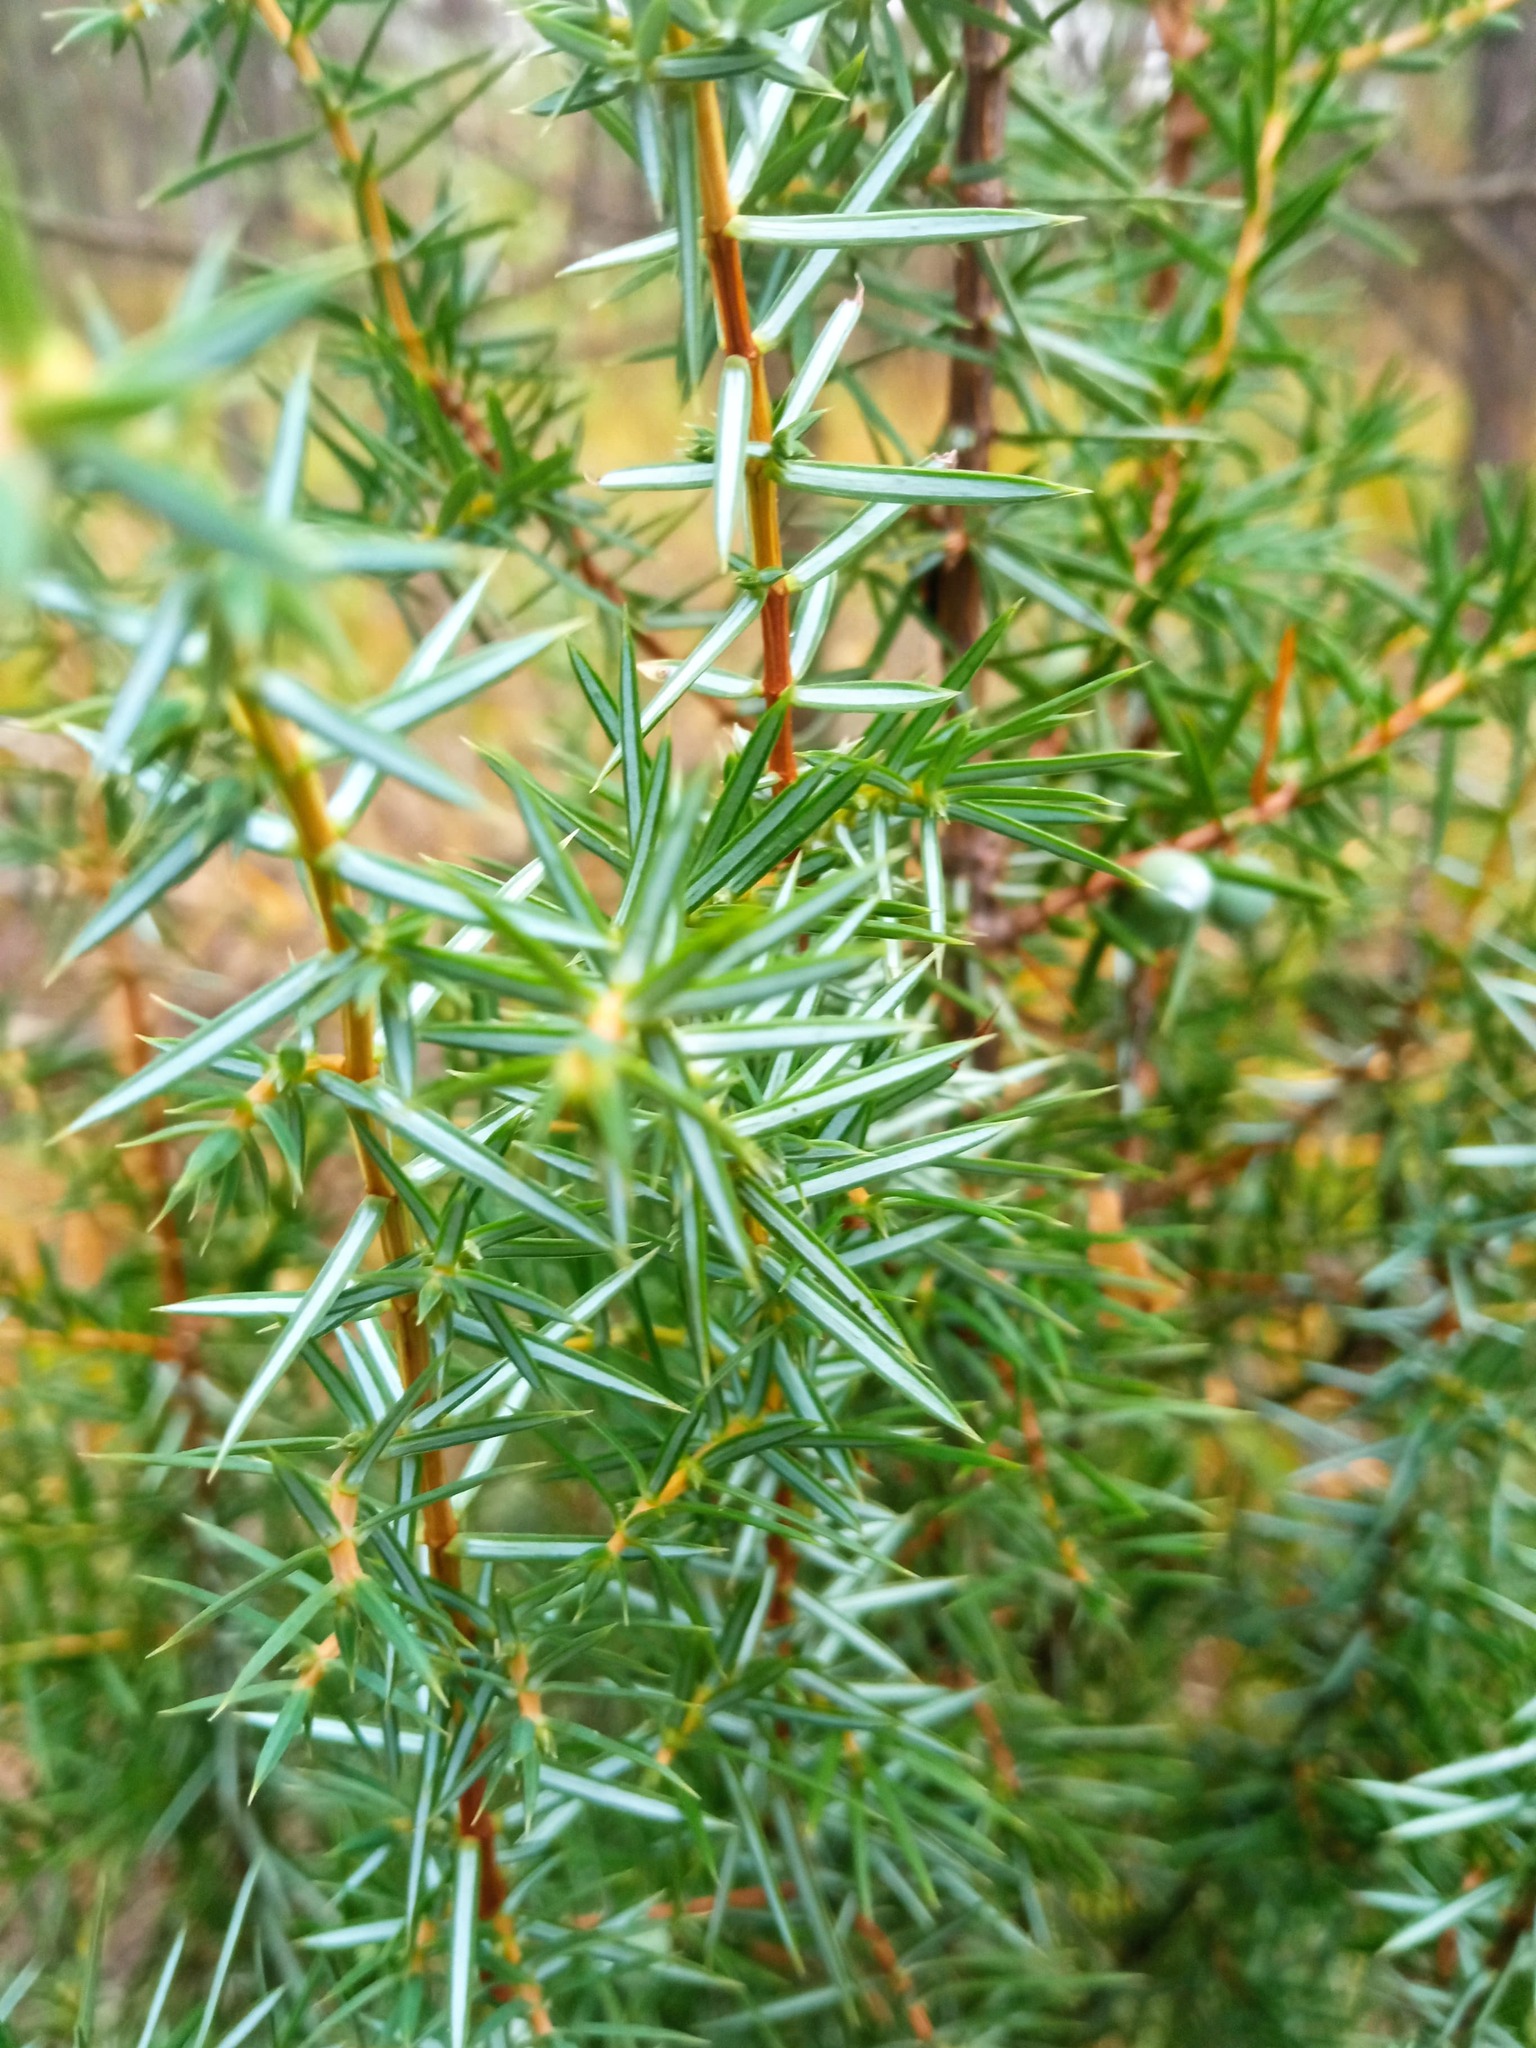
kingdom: Plantae
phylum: Tracheophyta
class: Pinopsida
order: Pinales
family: Cupressaceae
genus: Juniperus
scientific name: Juniperus communis
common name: Common juniper
